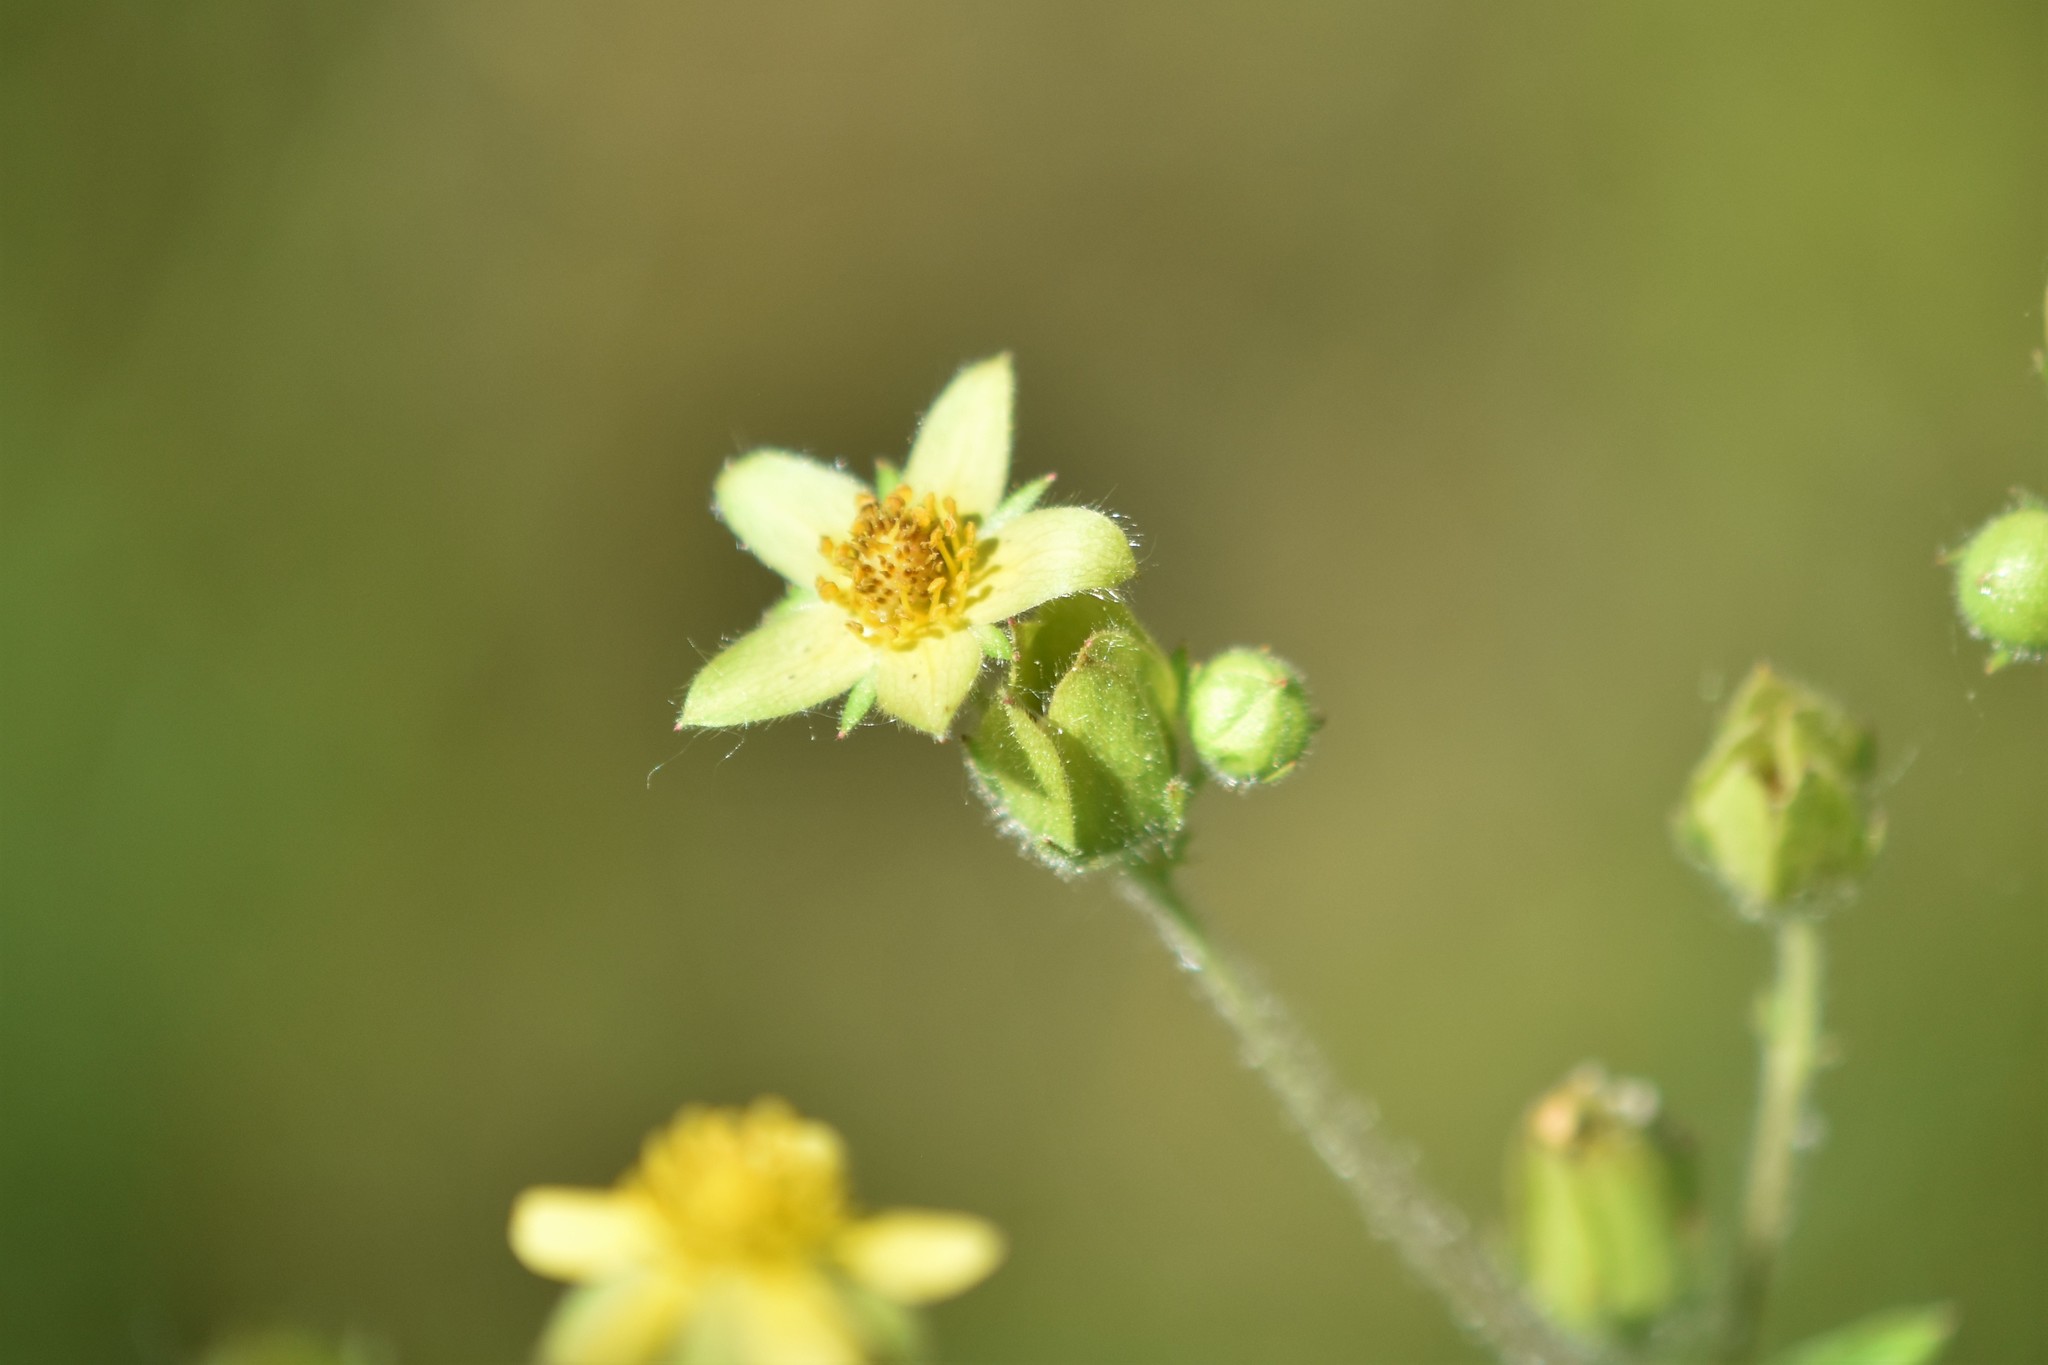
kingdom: Plantae
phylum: Tracheophyta
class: Magnoliopsida
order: Rosales
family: Rosaceae
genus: Drymocallis
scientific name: Drymocallis glandulosa
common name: Sticky cinquefoil
